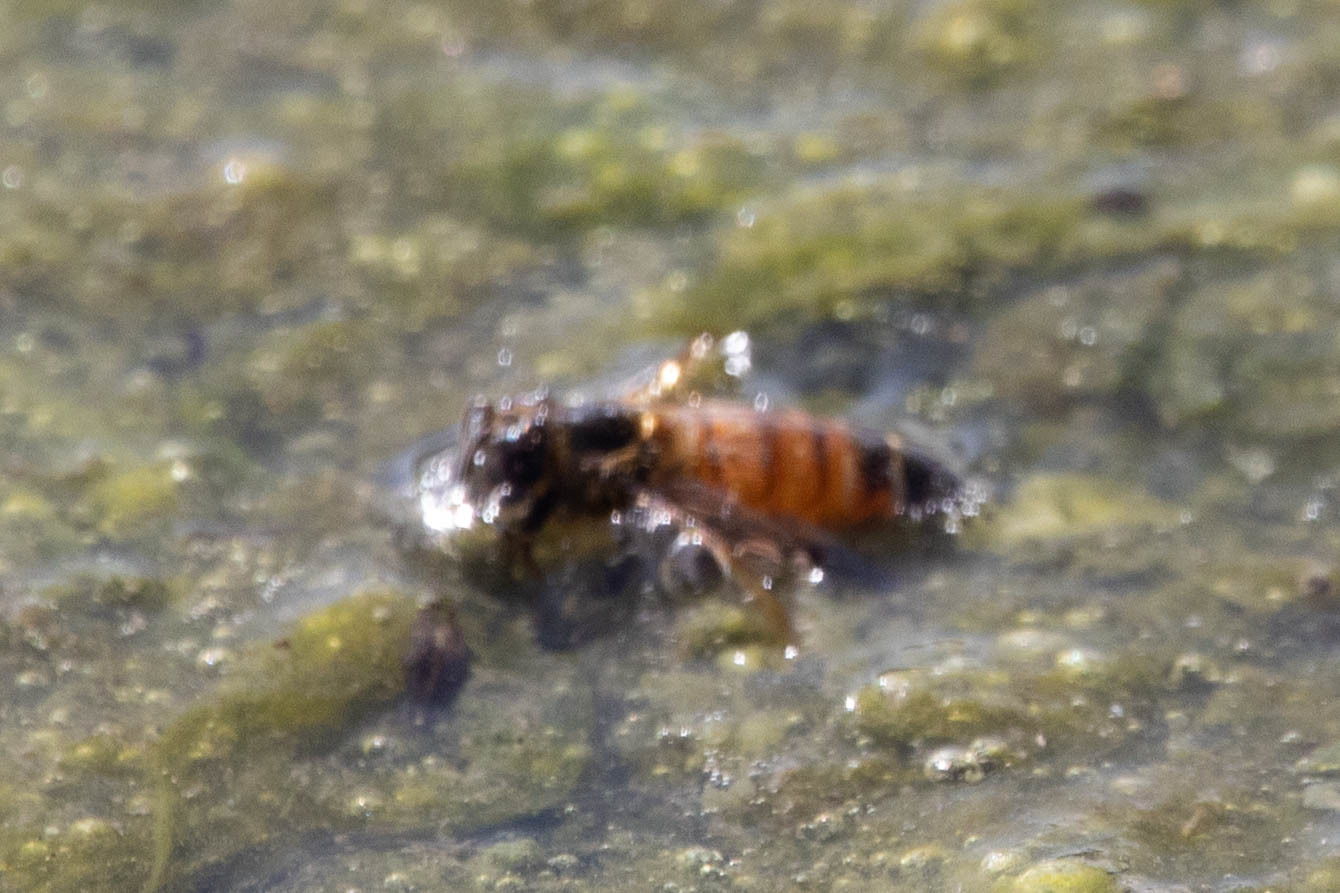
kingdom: Animalia
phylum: Arthropoda
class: Insecta
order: Hymenoptera
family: Apidae
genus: Apis
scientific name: Apis mellifera
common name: Honey bee
